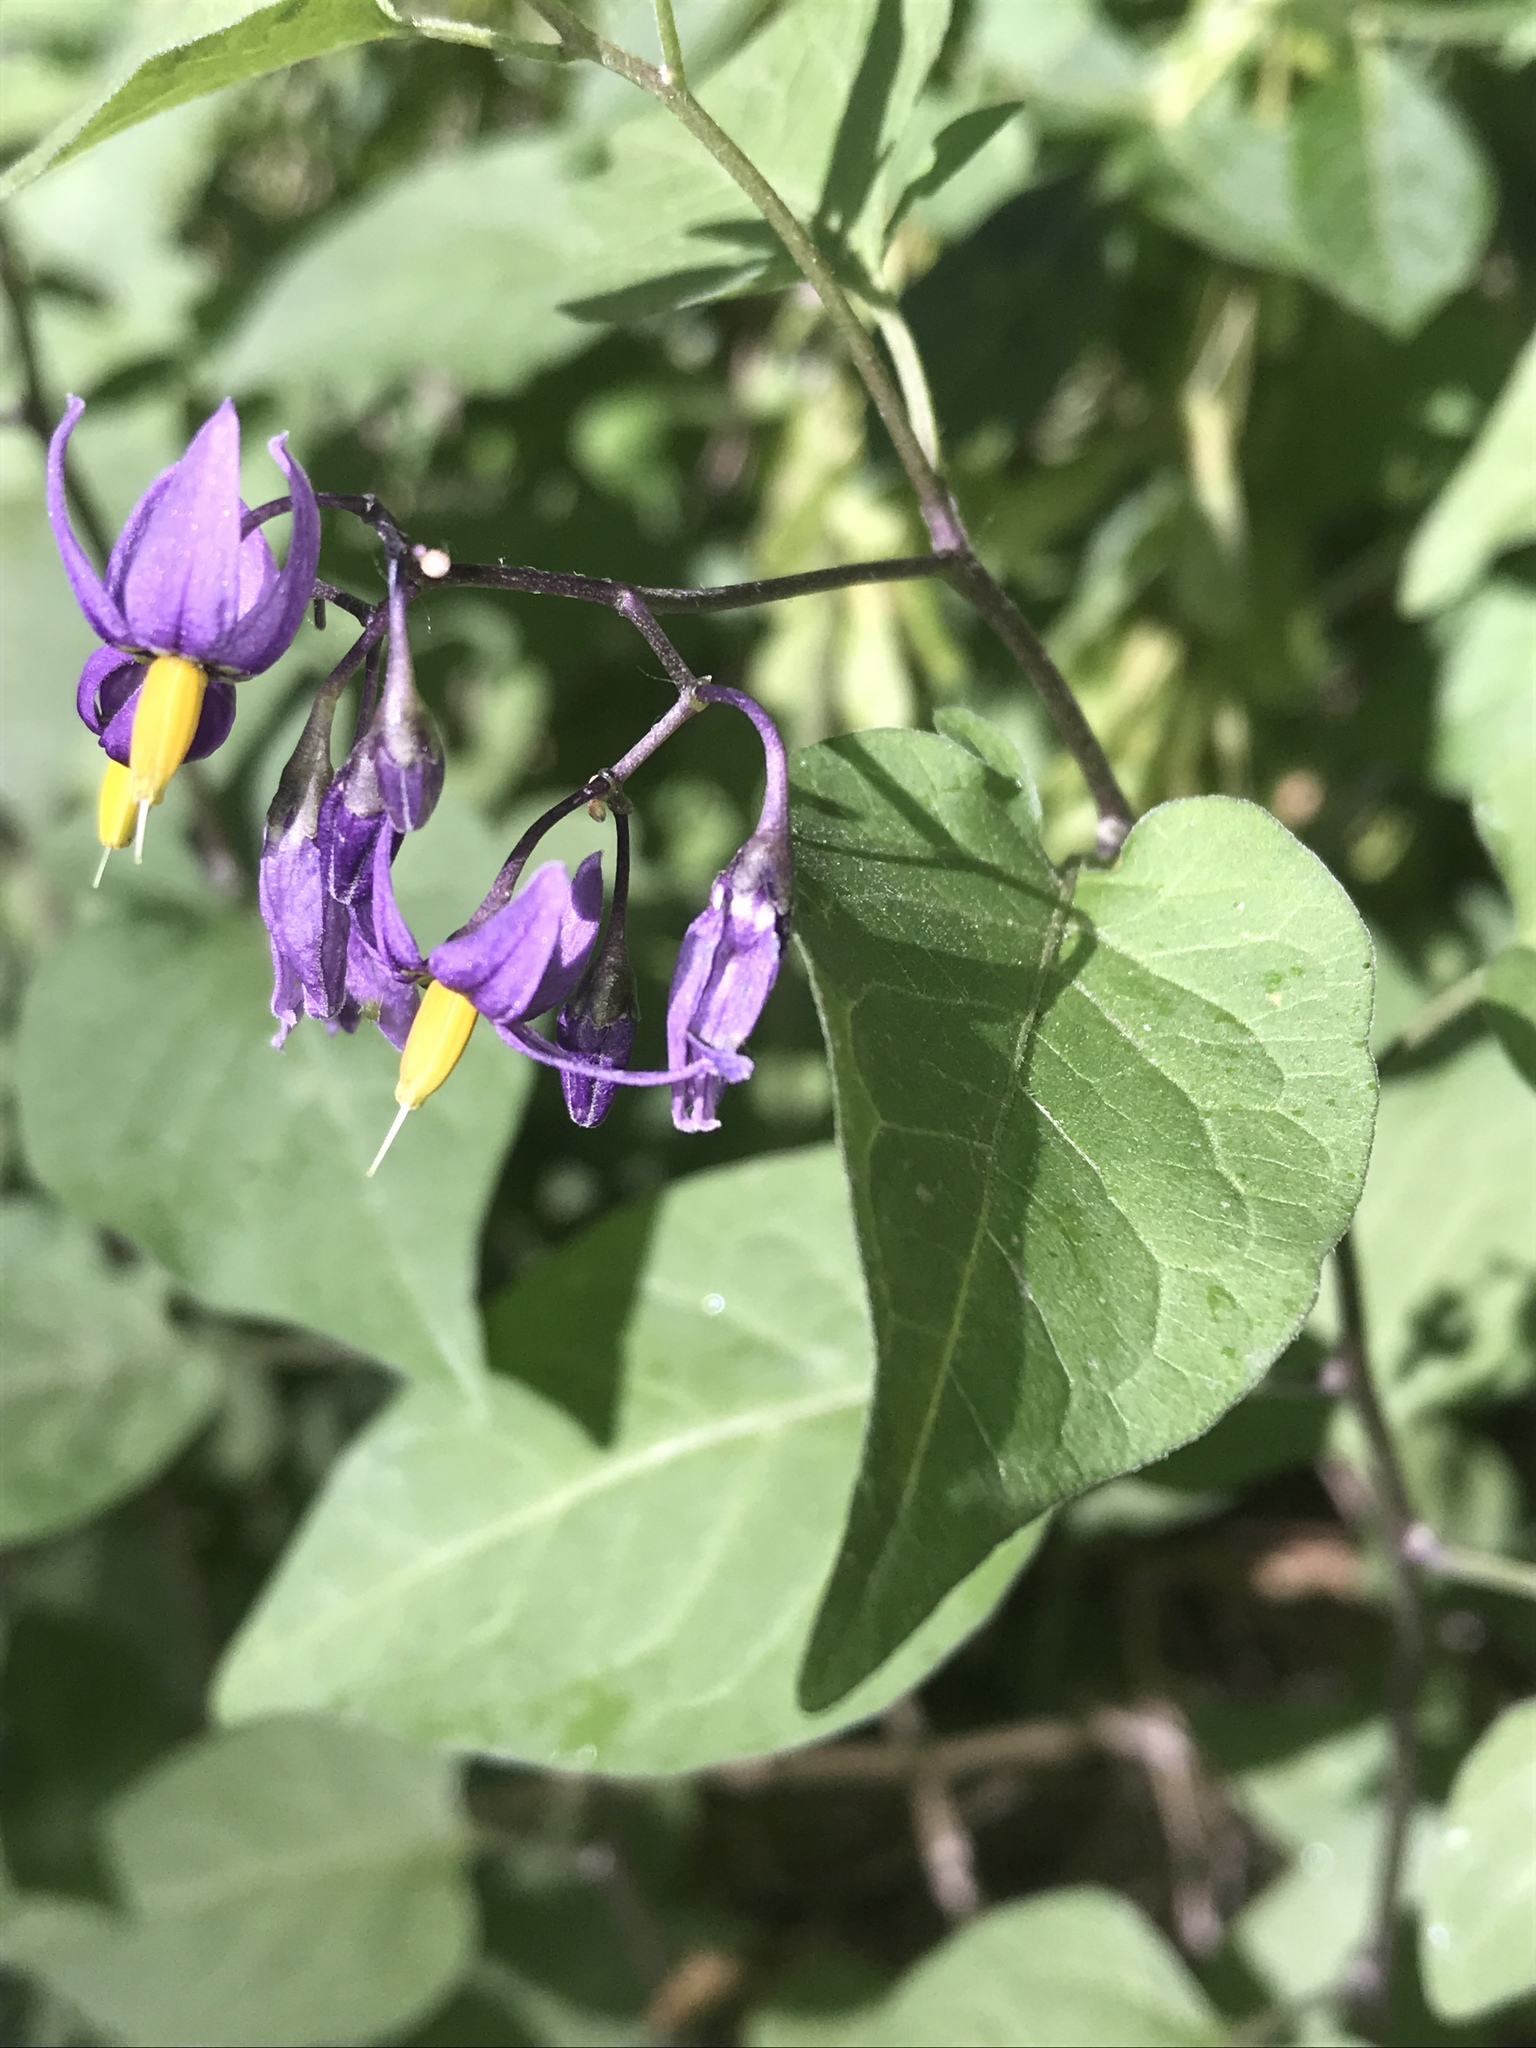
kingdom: Plantae
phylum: Tracheophyta
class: Magnoliopsida
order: Solanales
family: Solanaceae
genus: Solanum
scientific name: Solanum dulcamara
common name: Climbing nightshade
